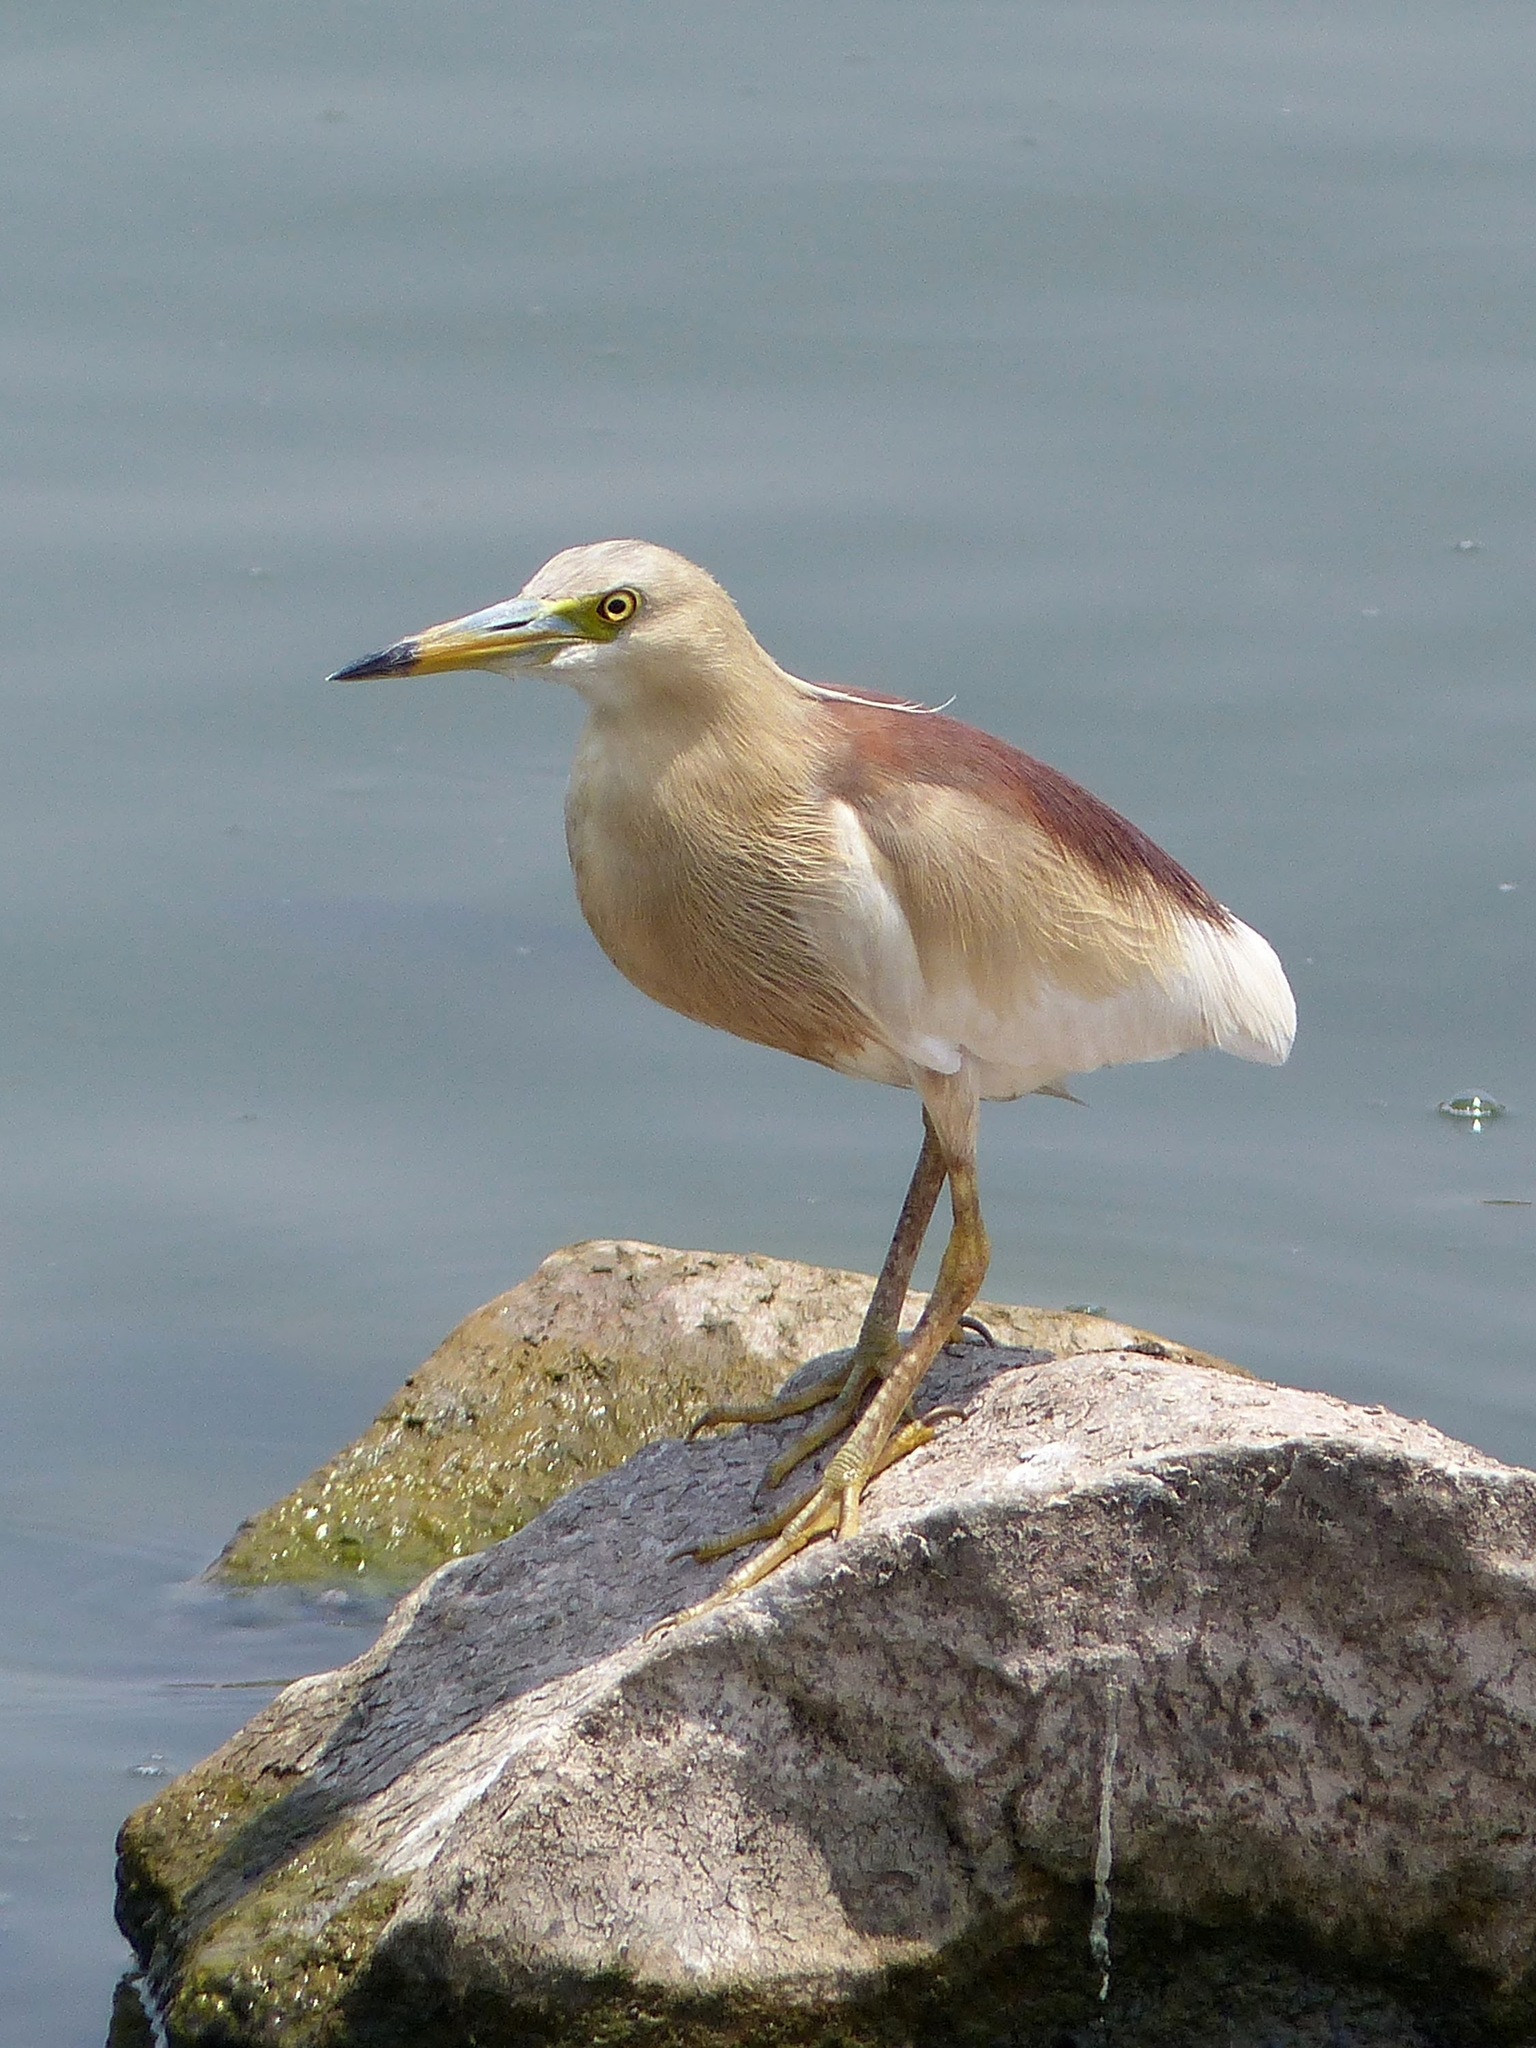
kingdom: Animalia
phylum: Chordata
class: Aves
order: Pelecaniformes
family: Ardeidae
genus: Ardeola
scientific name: Ardeola grayii
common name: Indian pond heron
